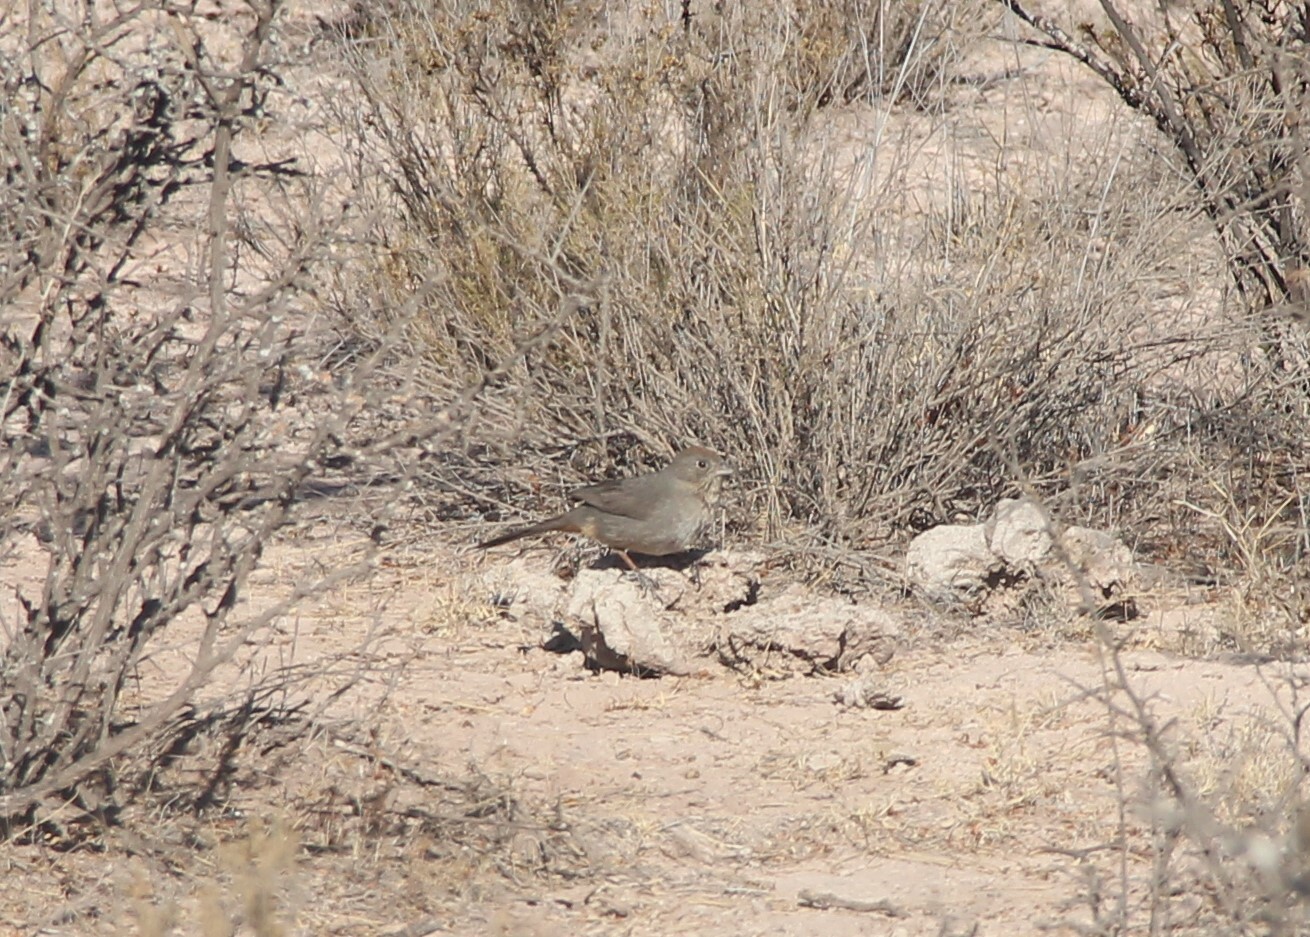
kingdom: Animalia
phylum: Chordata
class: Aves
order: Passeriformes
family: Passerellidae
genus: Melozone
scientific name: Melozone fusca
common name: Canyon towhee
